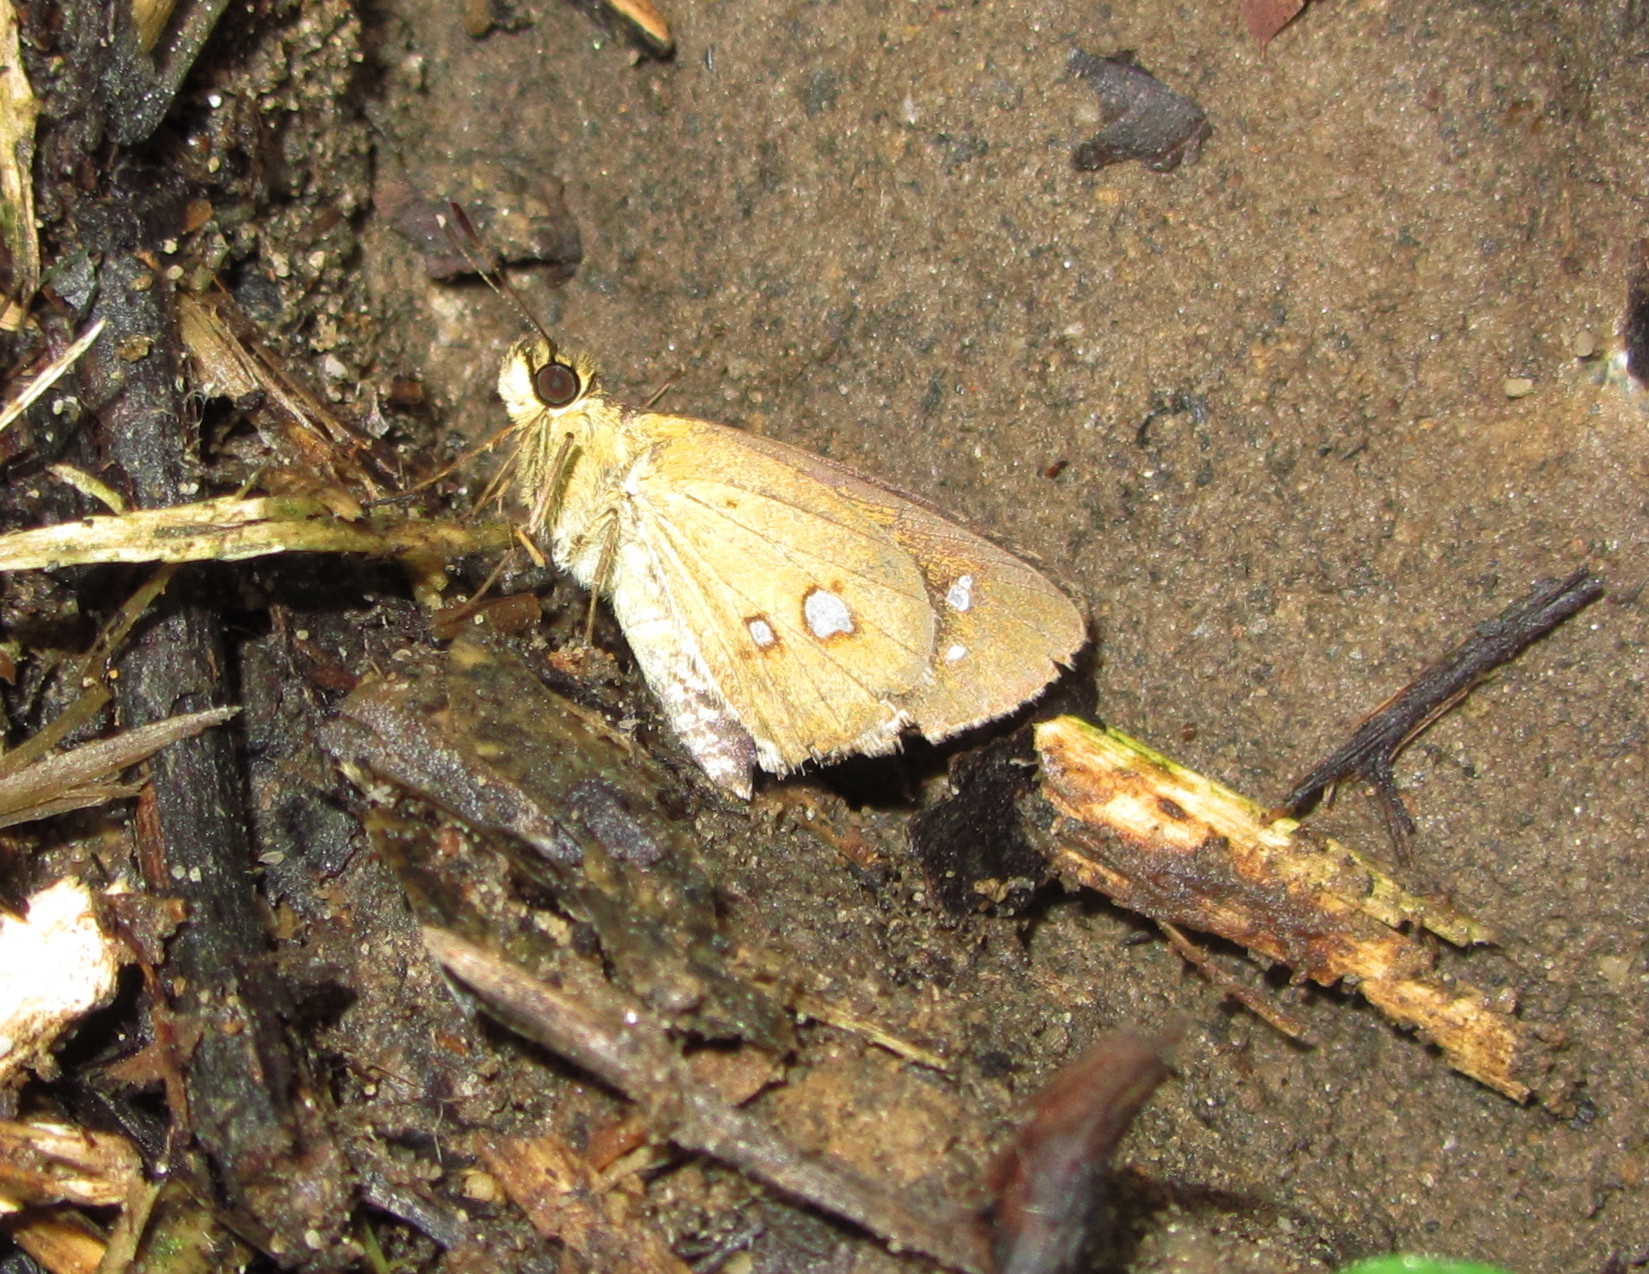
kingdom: Animalia
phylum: Arthropoda
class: Insecta
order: Lepidoptera
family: Hesperiidae
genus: Scobura
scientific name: Scobura isota
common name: Swinhoe's forest bob
